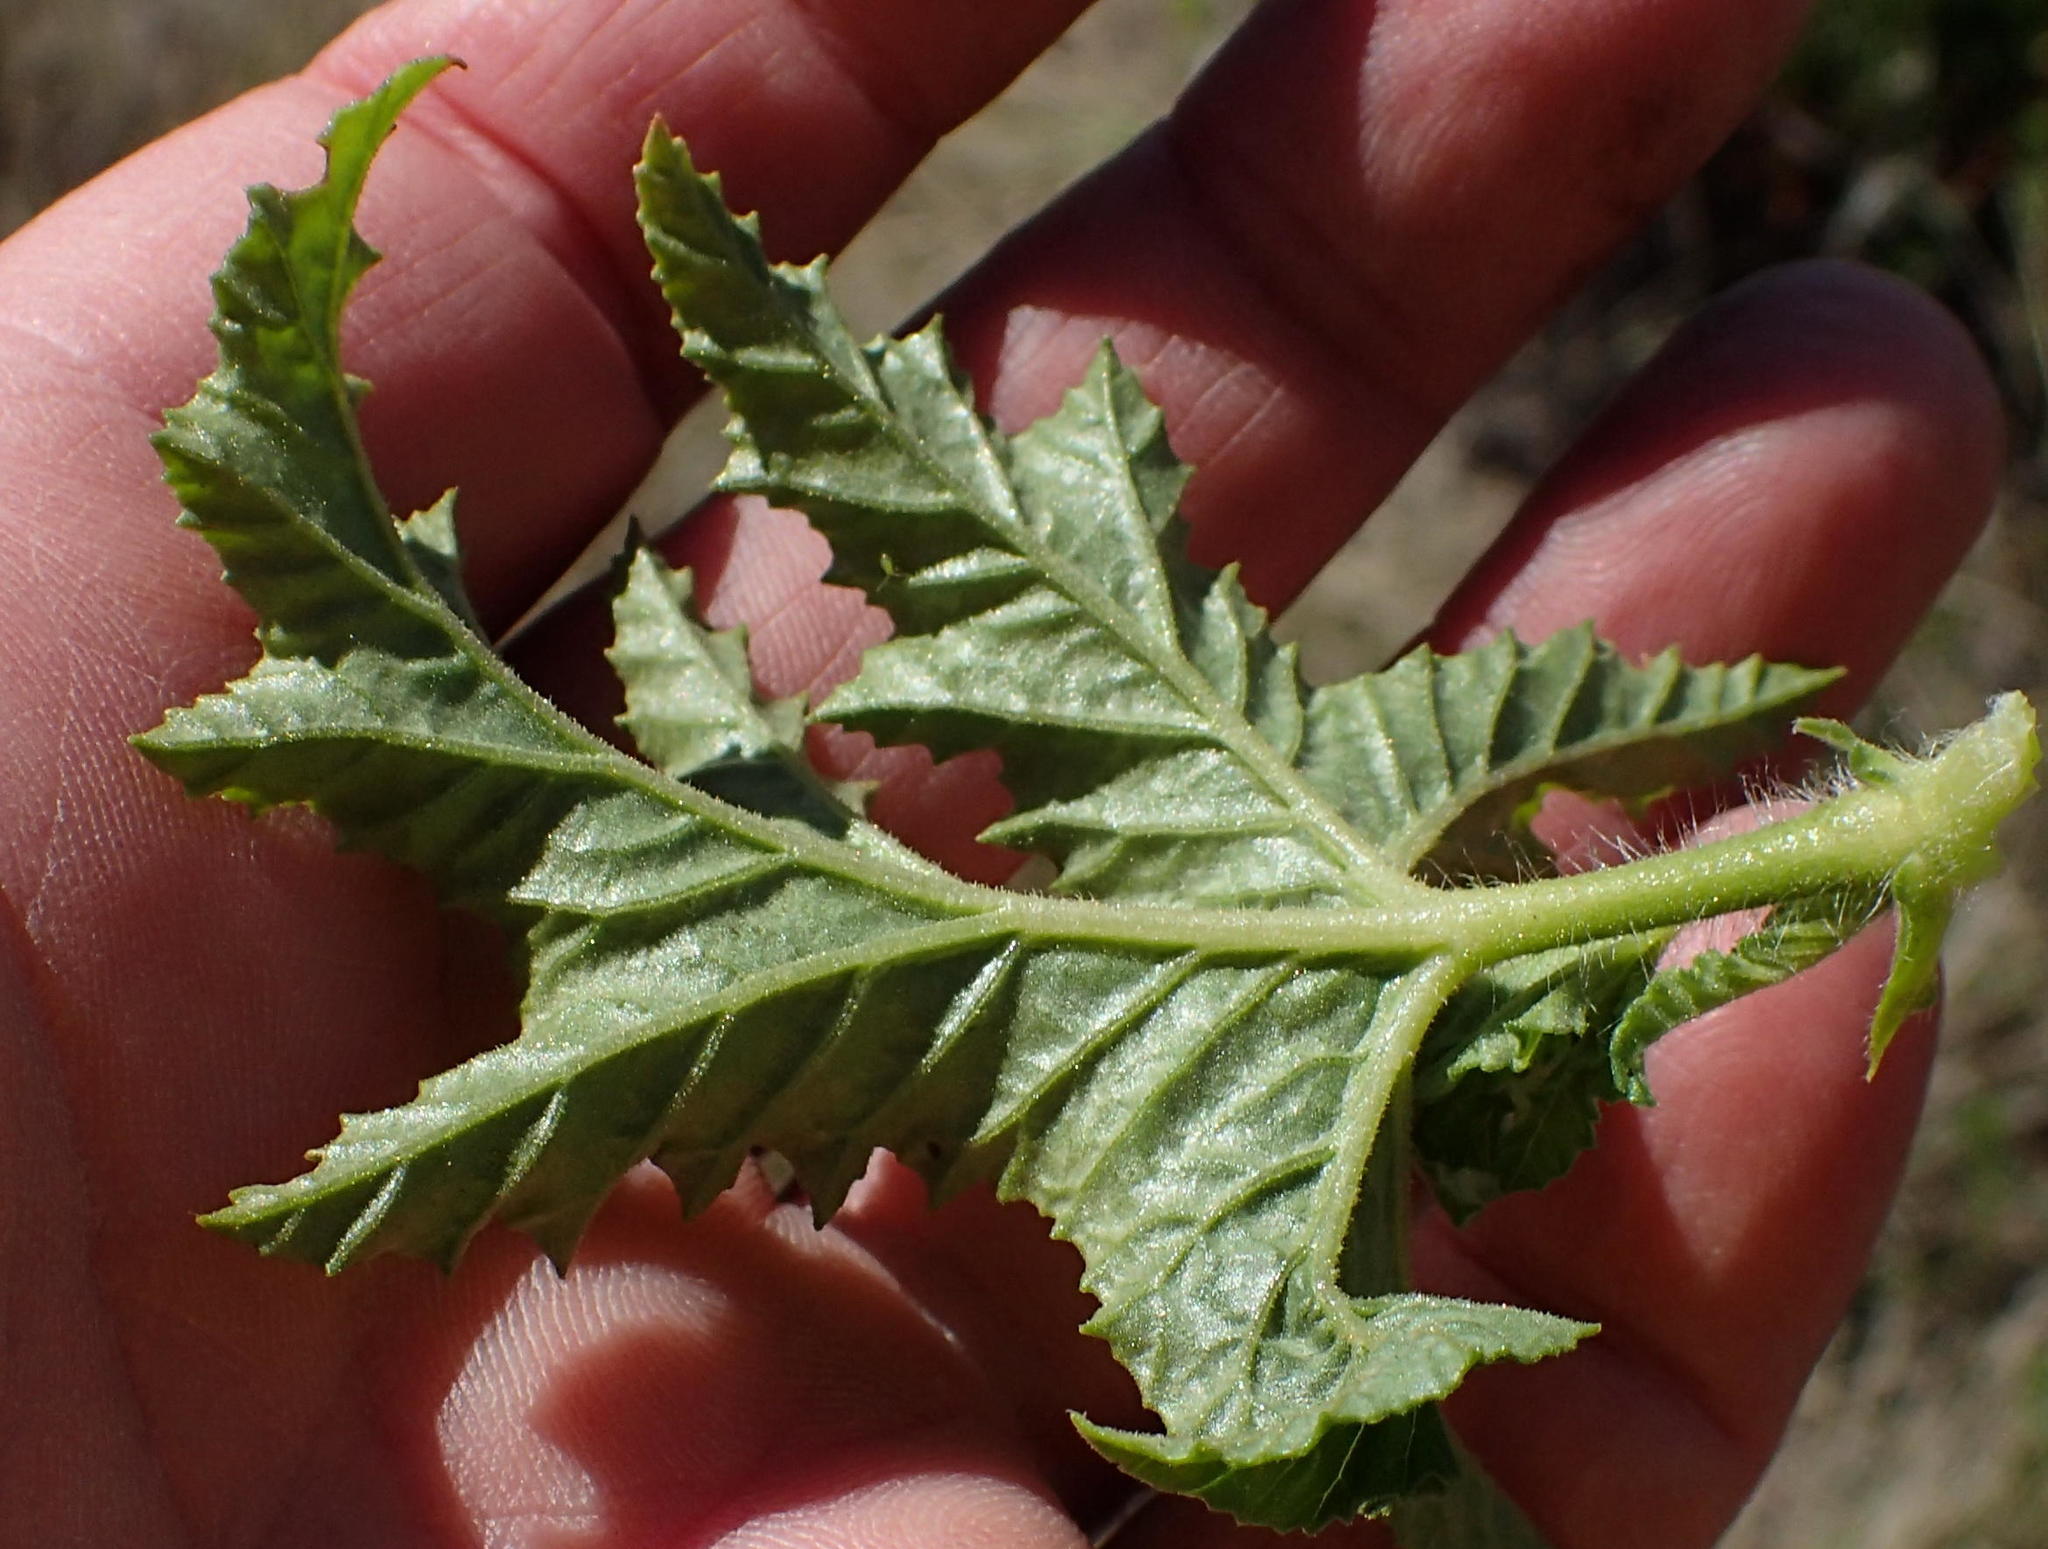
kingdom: Plantae
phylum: Tracheophyta
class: Magnoliopsida
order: Geraniales
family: Geraniaceae
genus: Pelargonium
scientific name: Pelargonium glutinosum
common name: Pheasant-foot geranium
